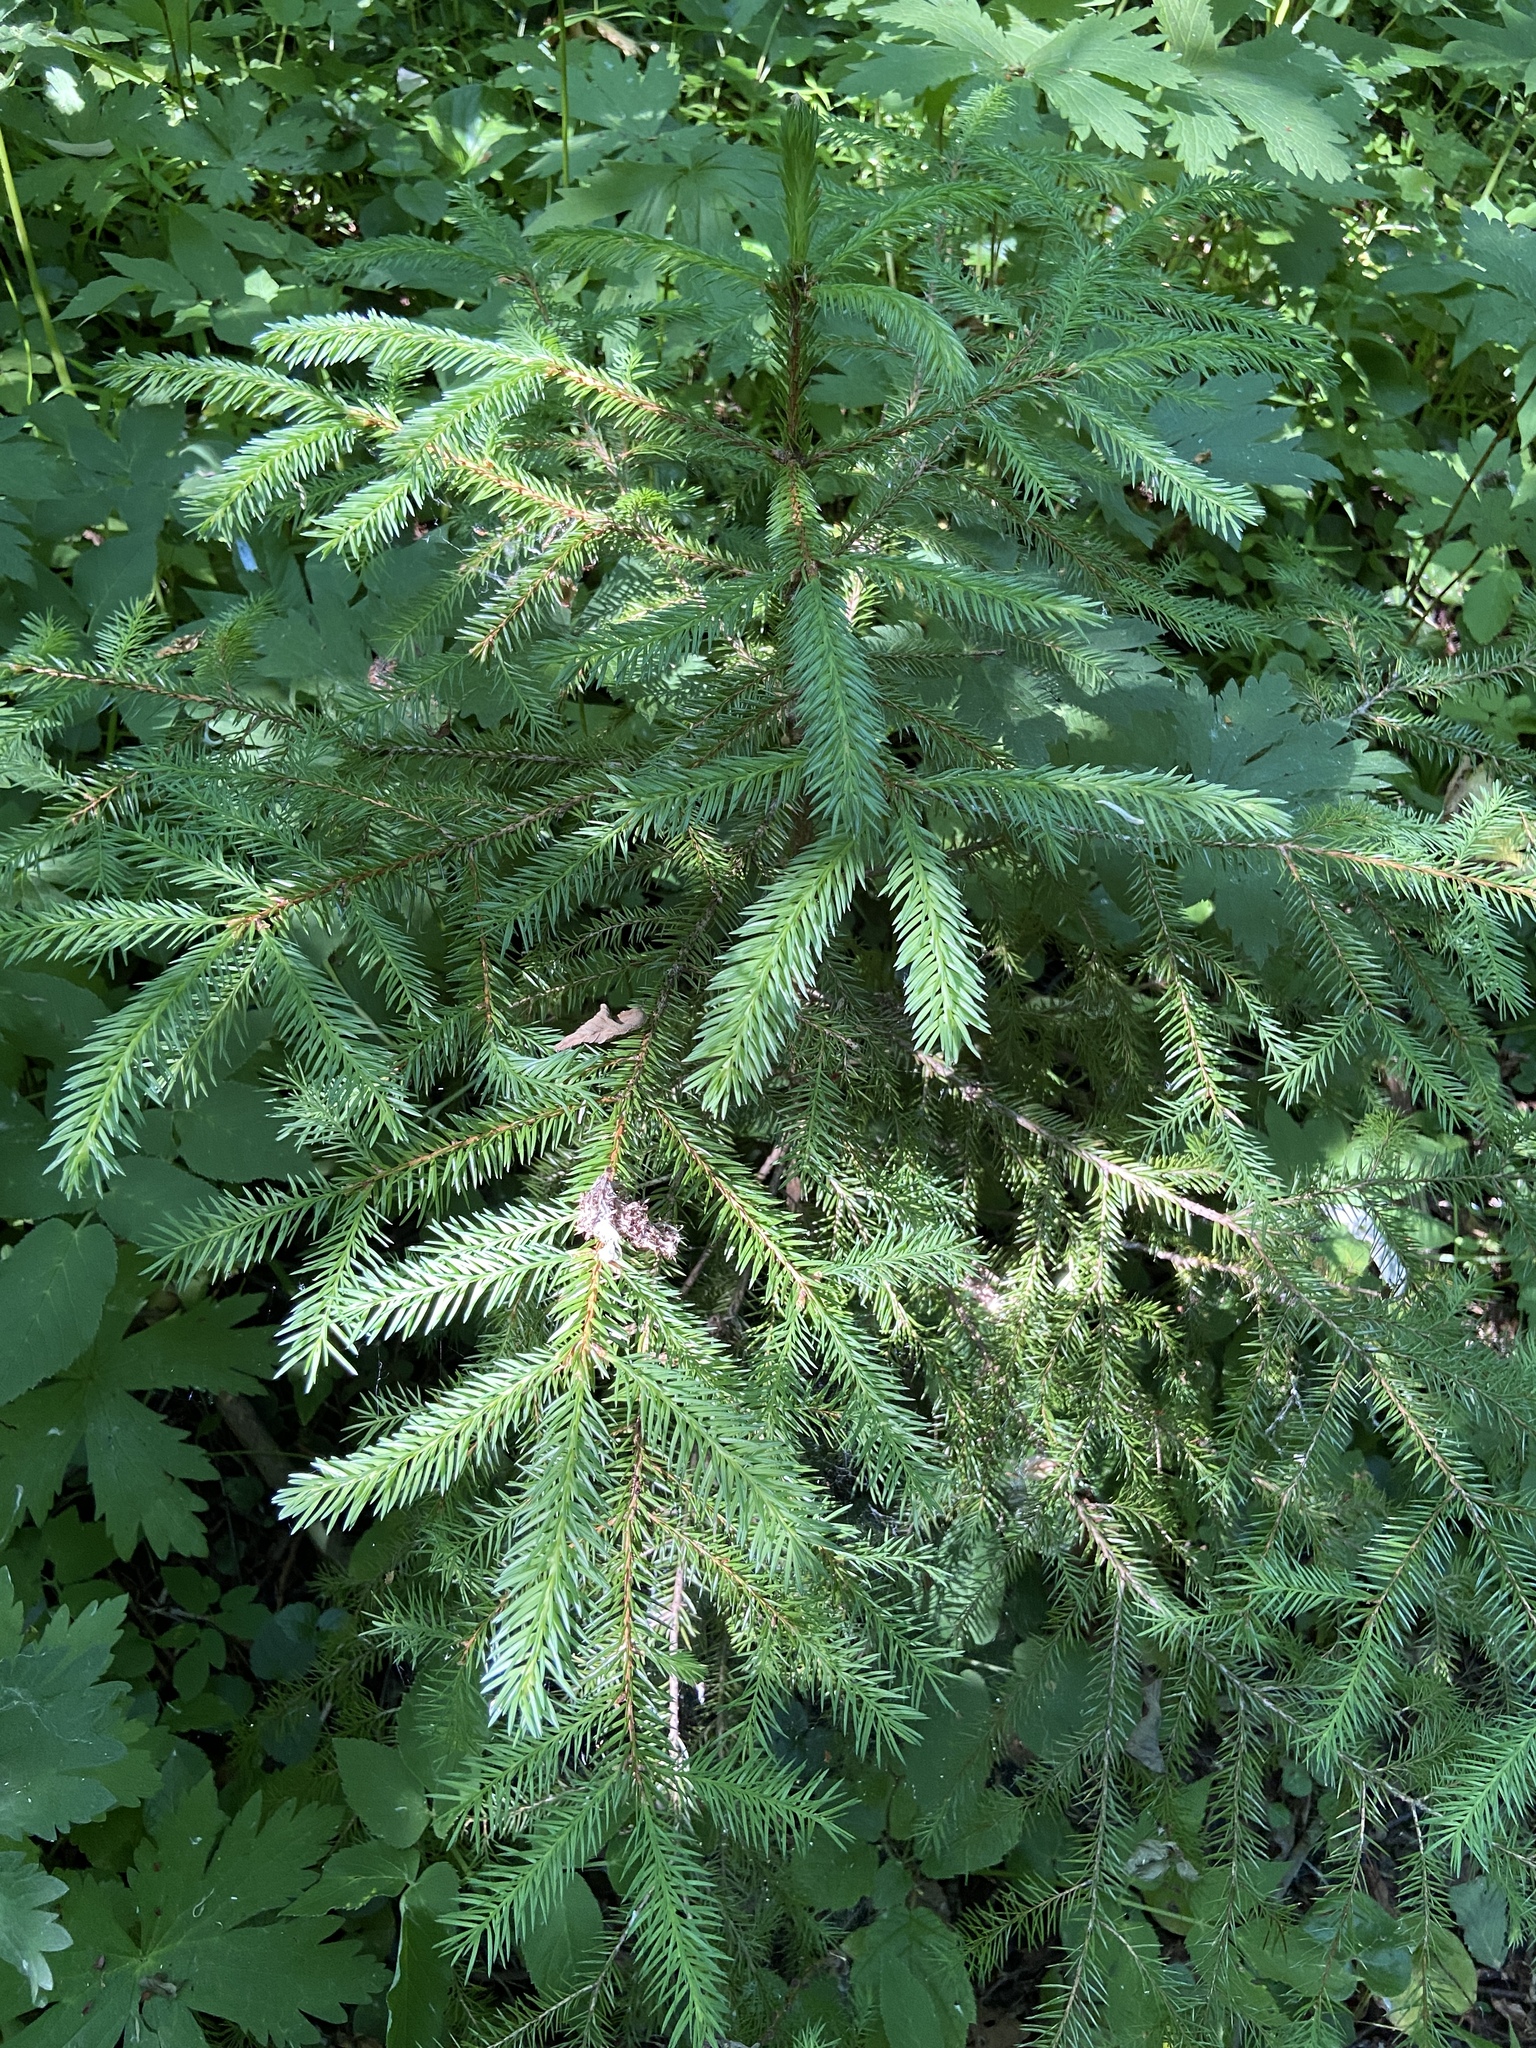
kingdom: Plantae
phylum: Tracheophyta
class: Pinopsida
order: Pinales
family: Pinaceae
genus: Picea
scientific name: Picea abies
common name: Norway spruce
